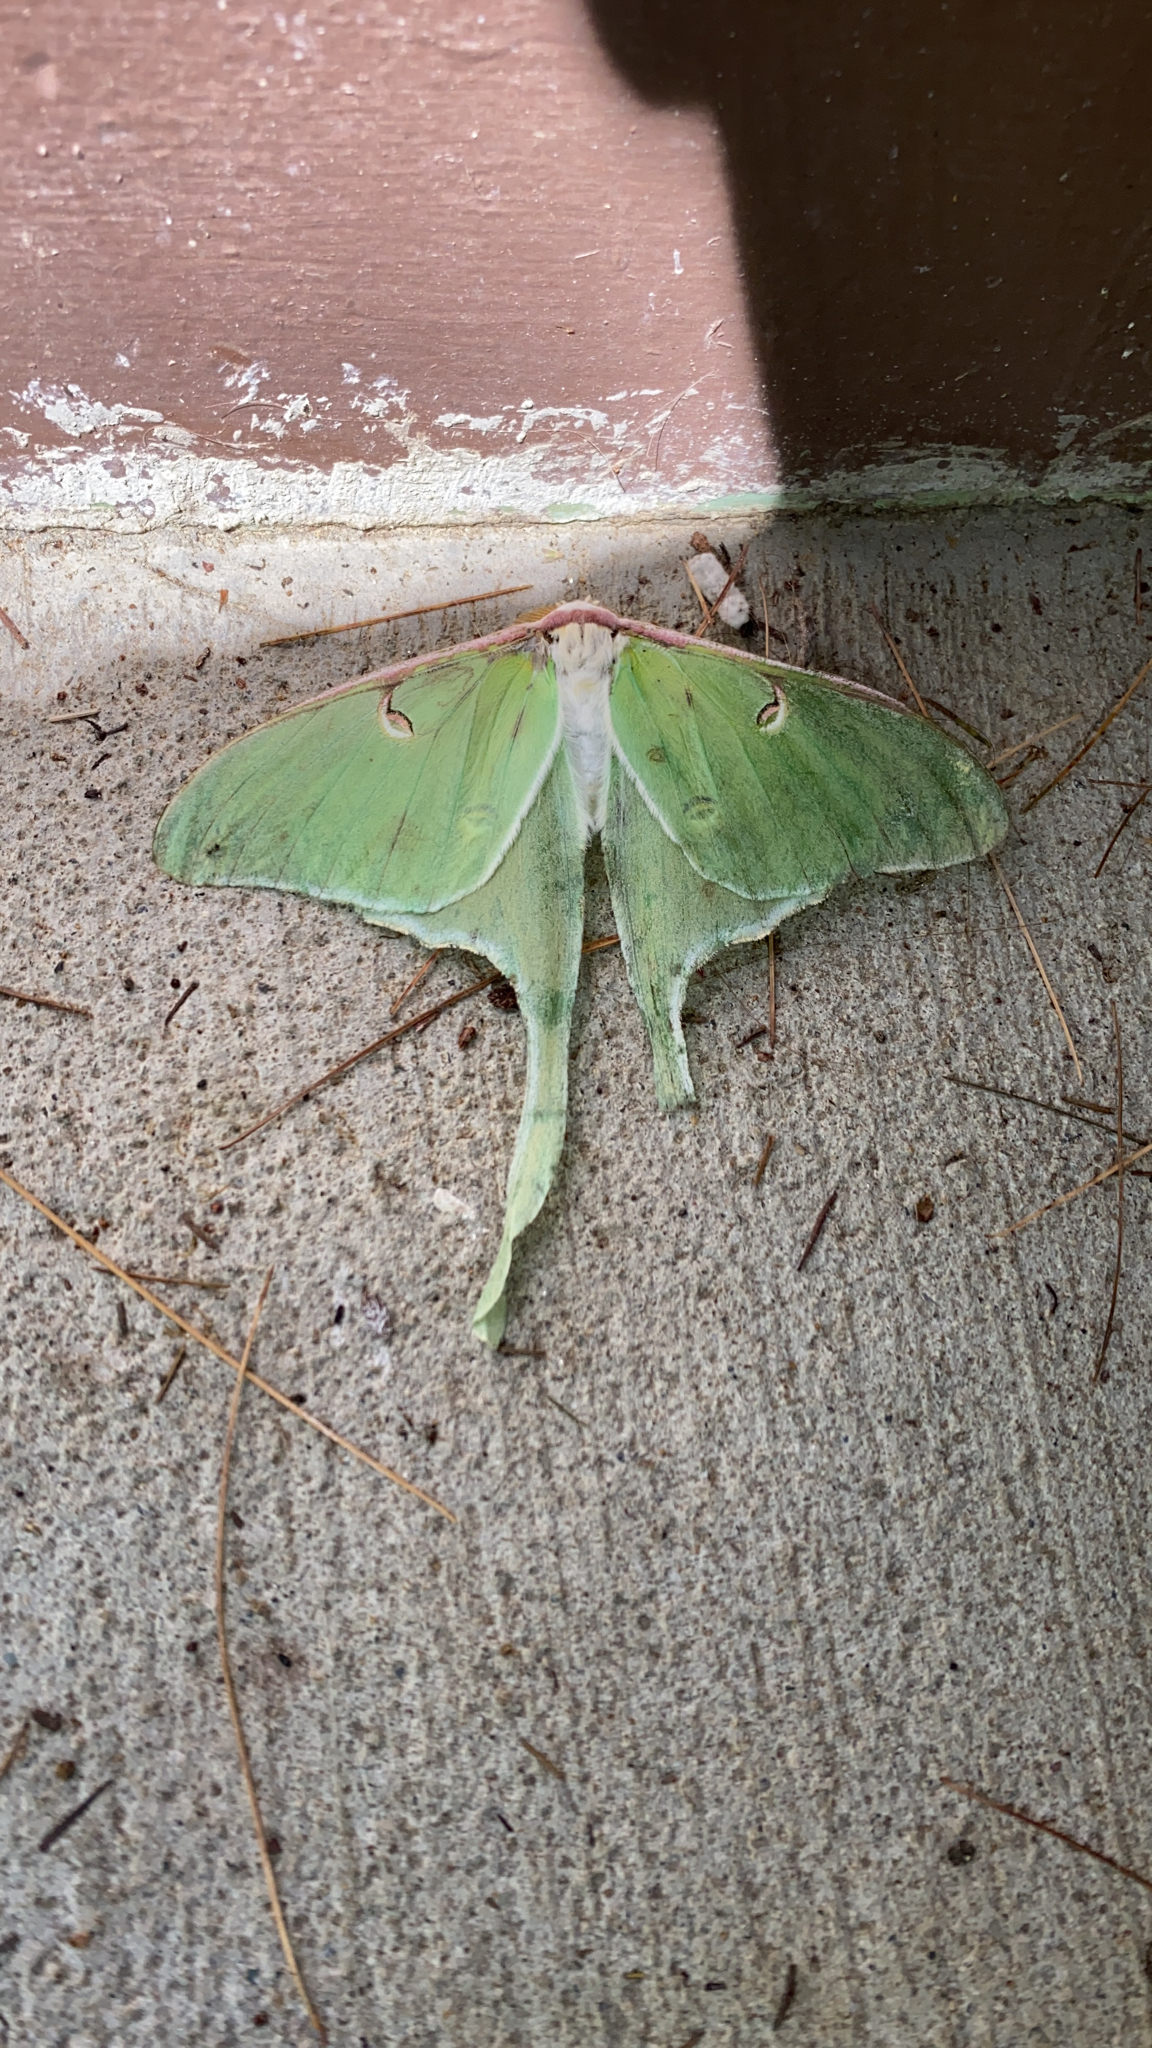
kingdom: Animalia
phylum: Arthropoda
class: Insecta
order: Lepidoptera
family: Saturniidae
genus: Actias
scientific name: Actias luna
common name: Luna moth
